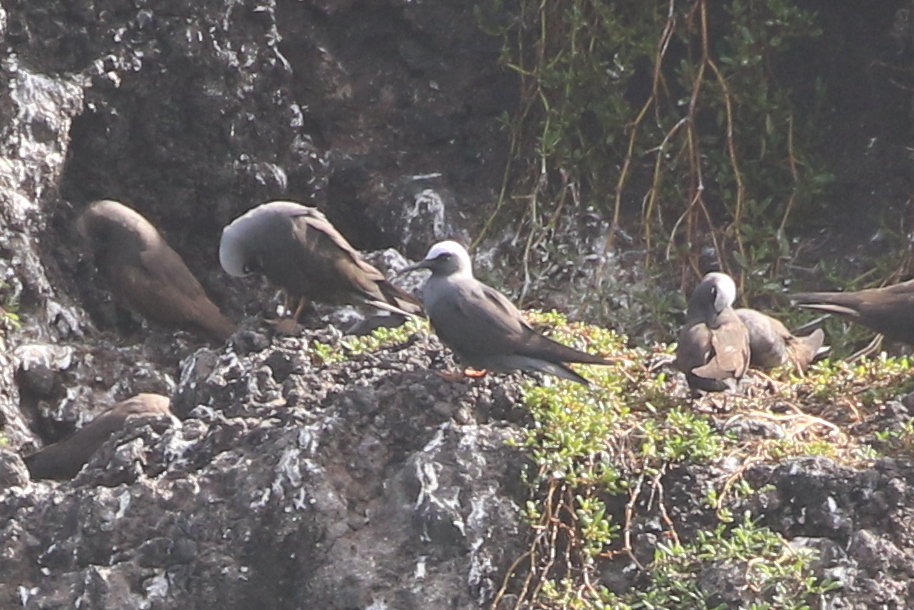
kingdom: Animalia
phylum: Chordata
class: Aves
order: Charadriiformes
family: Laridae
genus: Anous
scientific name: Anous minutus
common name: Black noddy
